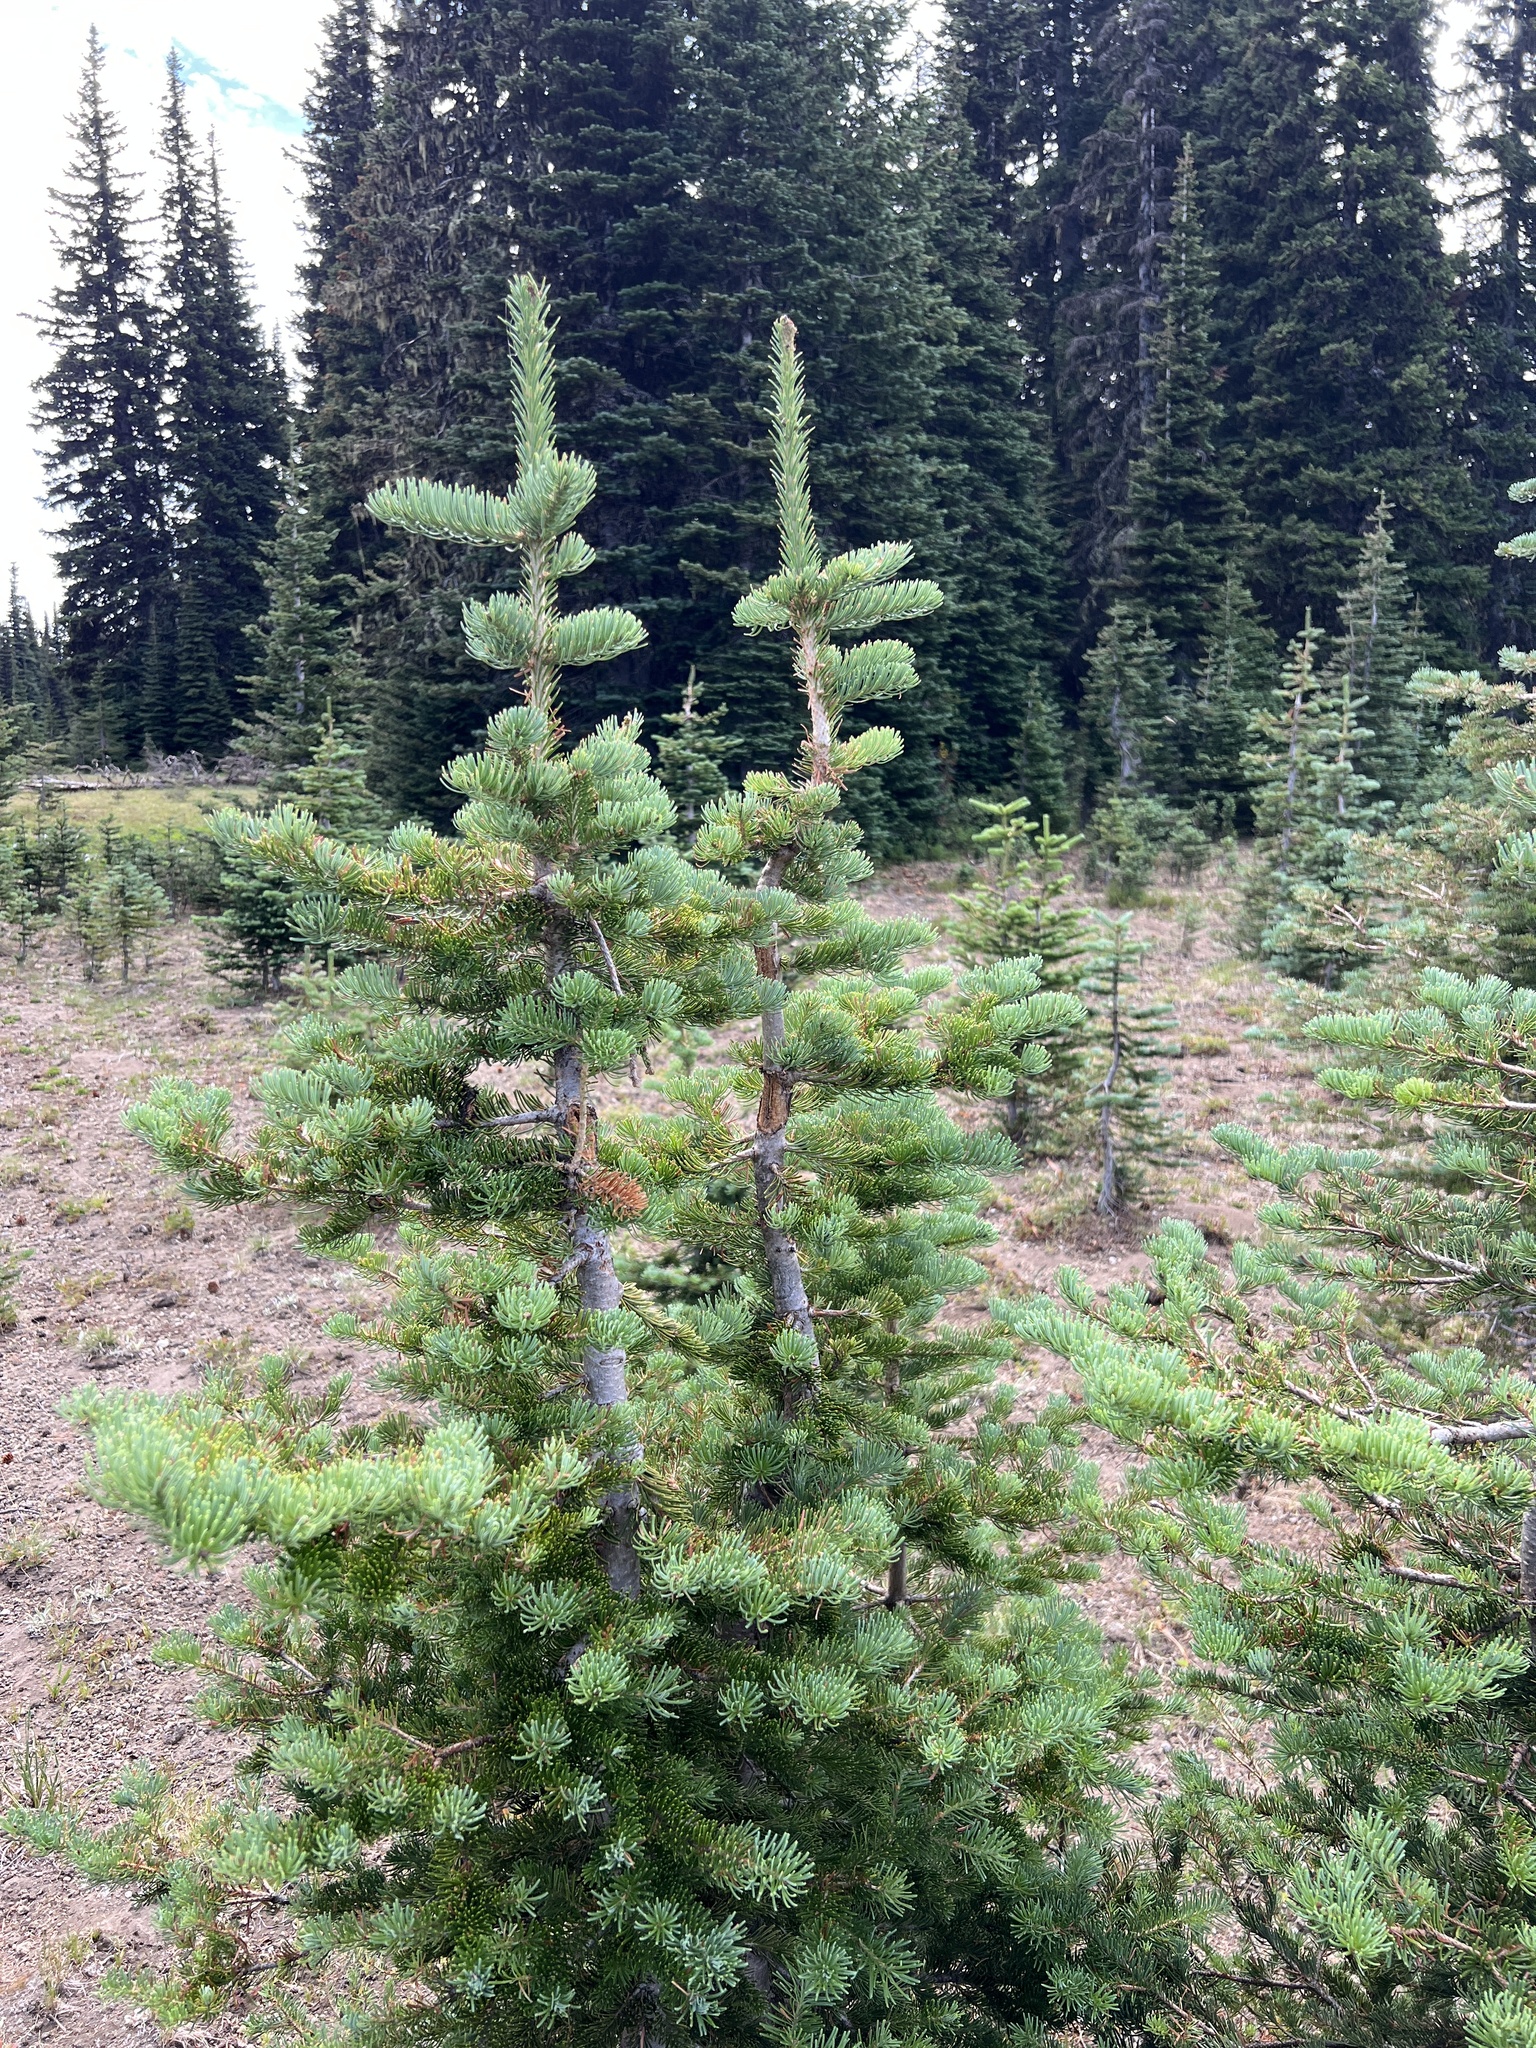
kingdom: Plantae
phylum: Tracheophyta
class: Pinopsida
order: Pinales
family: Pinaceae
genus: Abies
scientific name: Abies lasiocarpa
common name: Subalpine fir
